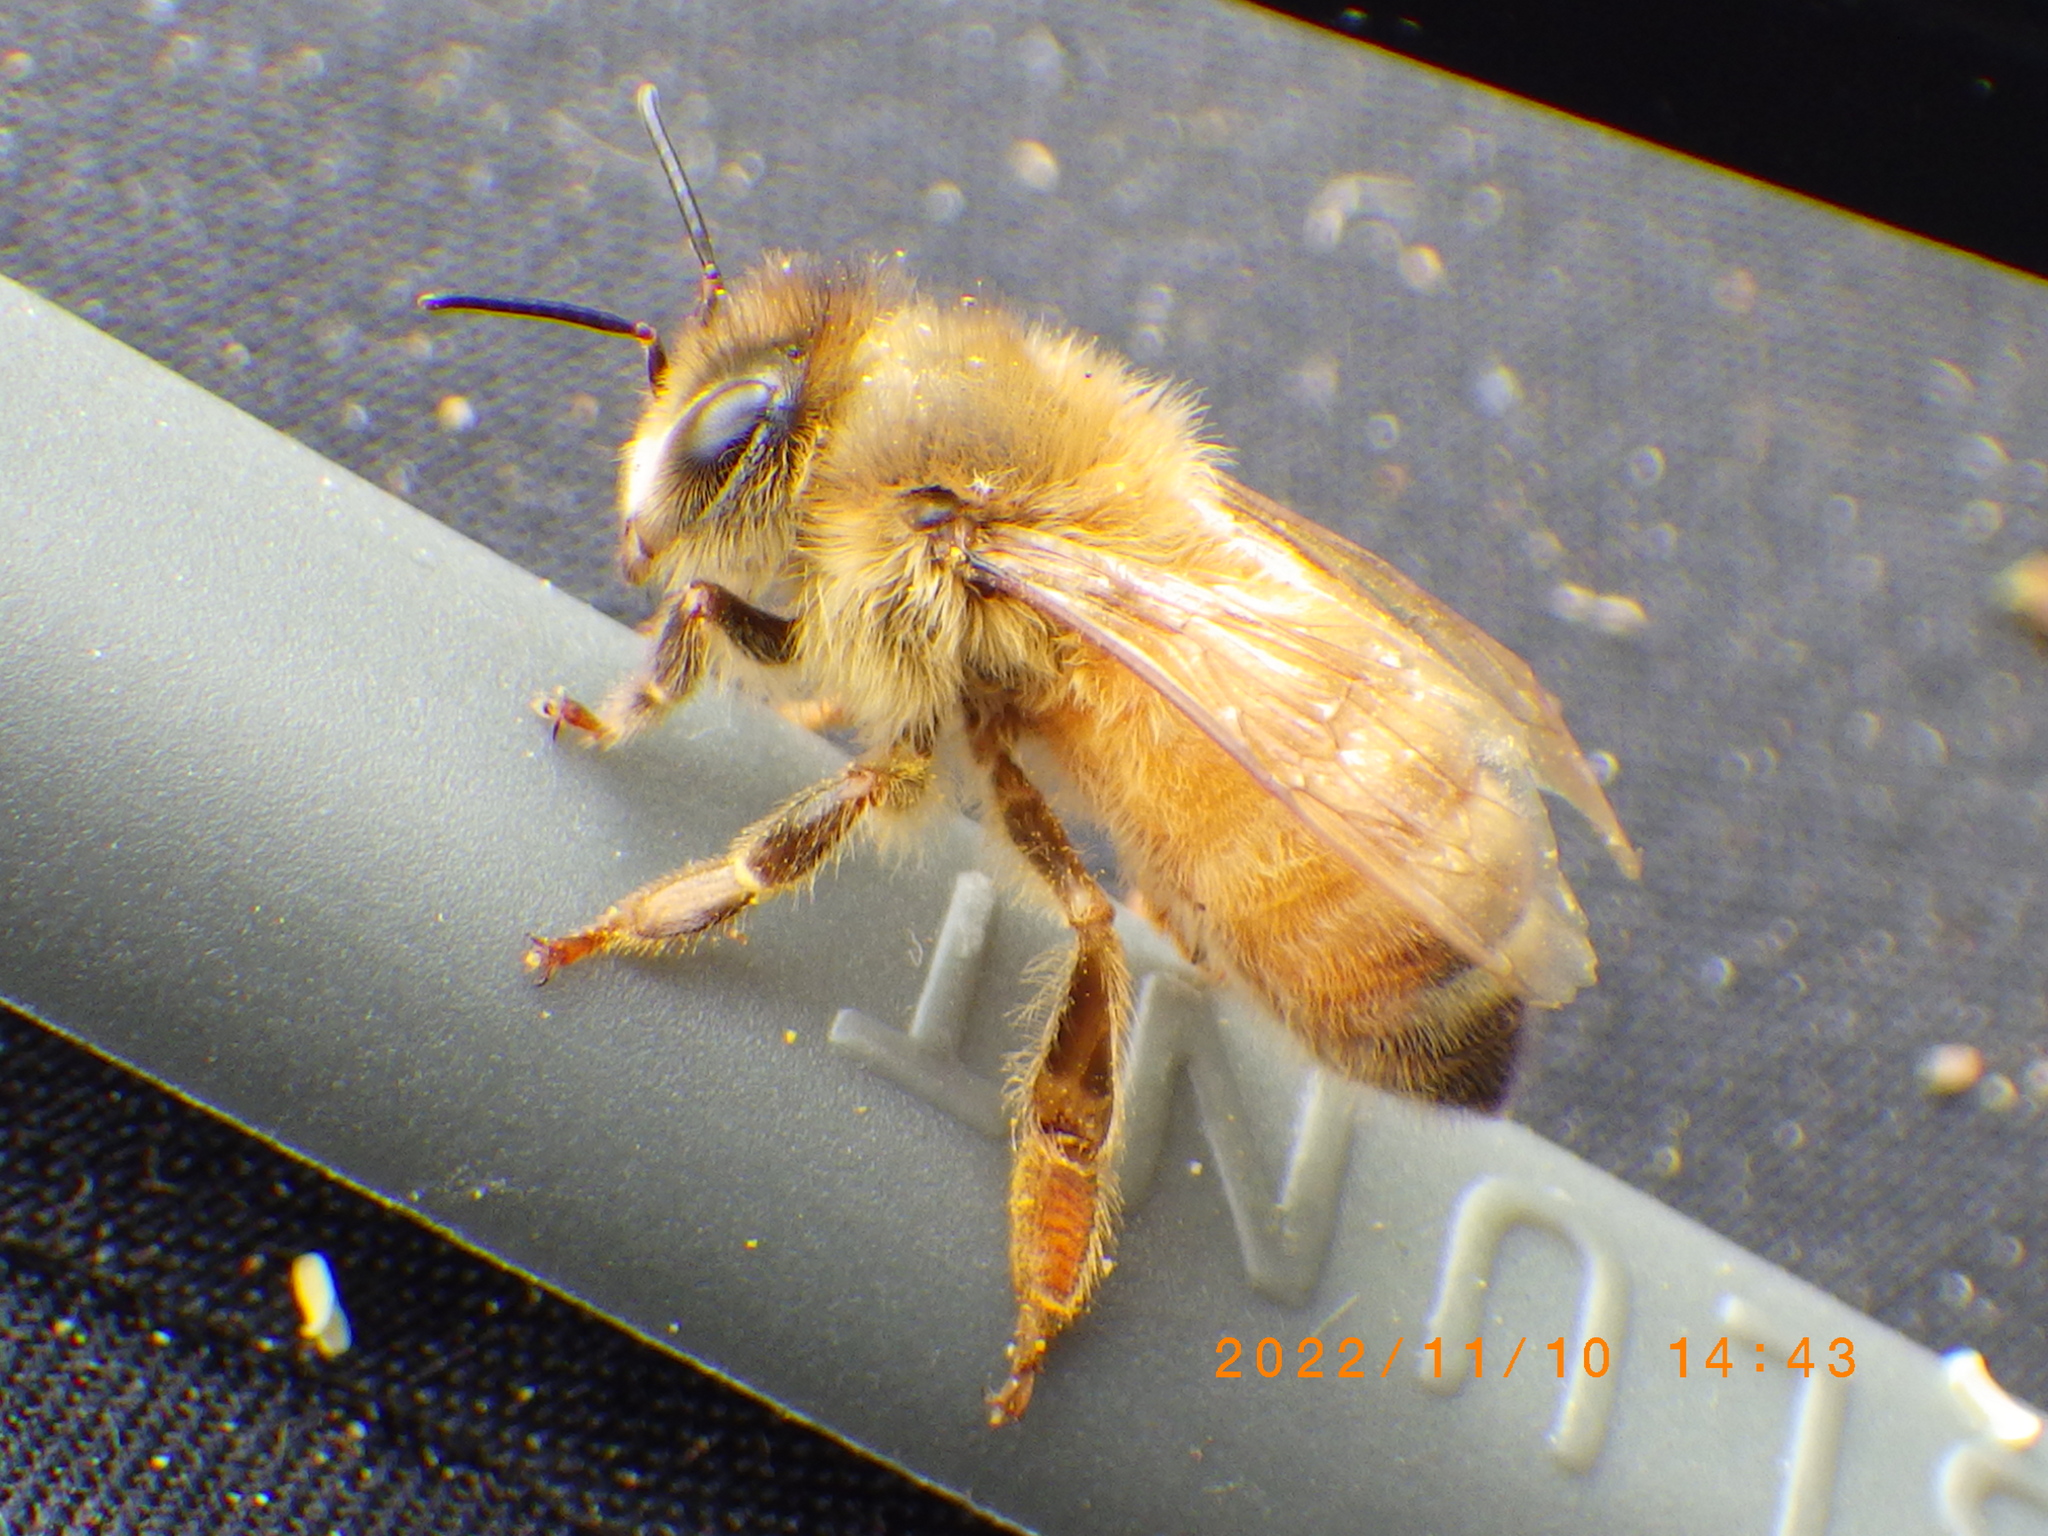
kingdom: Animalia
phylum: Arthropoda
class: Insecta
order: Hymenoptera
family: Apidae
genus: Apis
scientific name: Apis mellifera
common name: Honey bee
